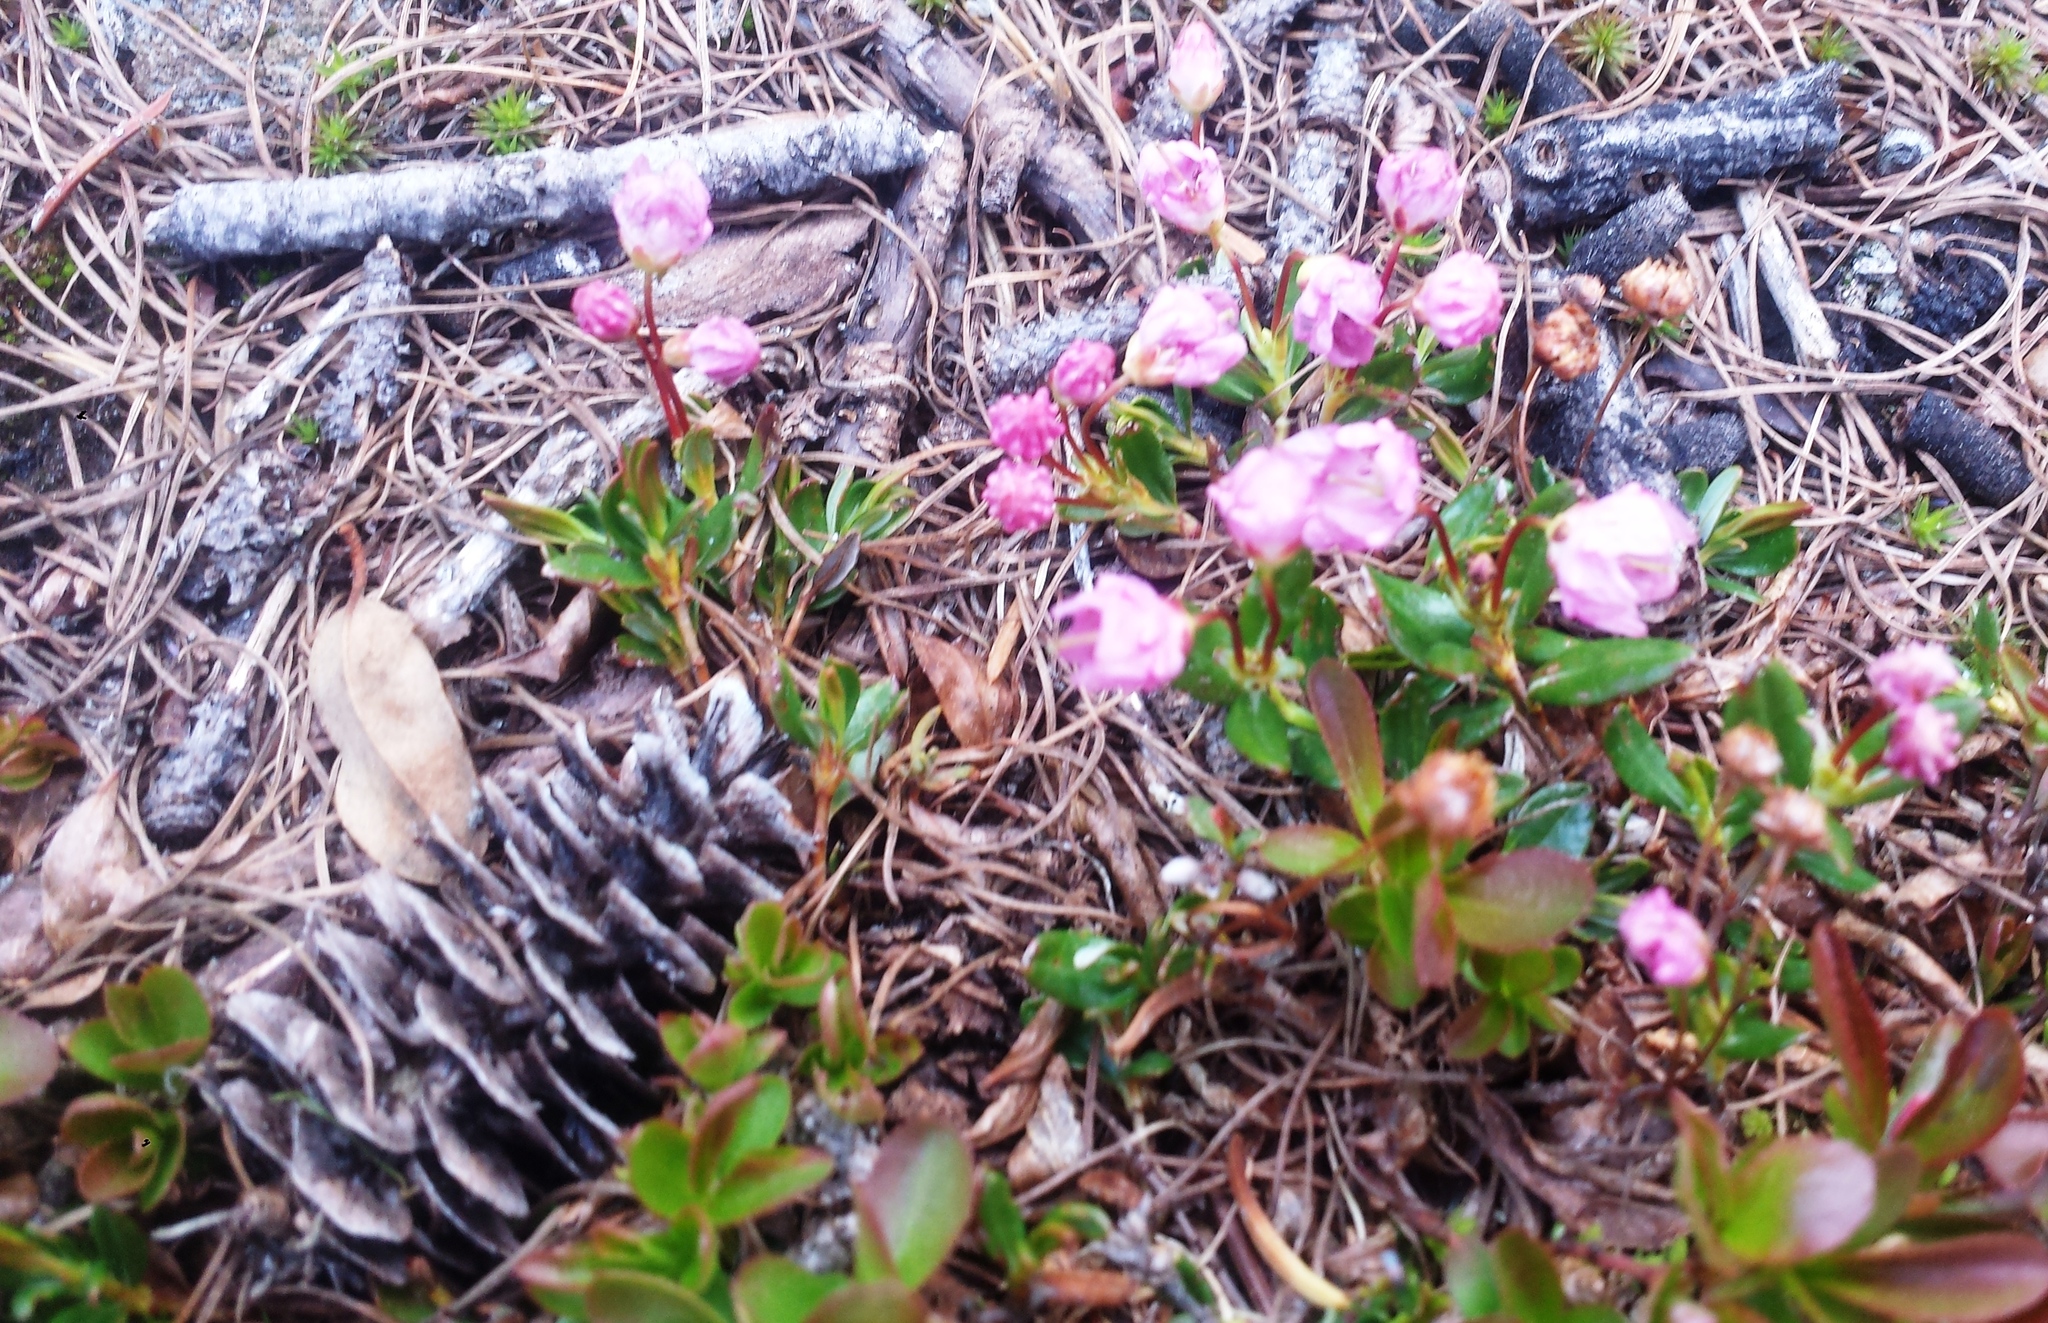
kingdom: Plantae
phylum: Tracheophyta
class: Magnoliopsida
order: Ericales
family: Ericaceae
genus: Kalmia
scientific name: Kalmia microphylla
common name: Alpine bog laurel
